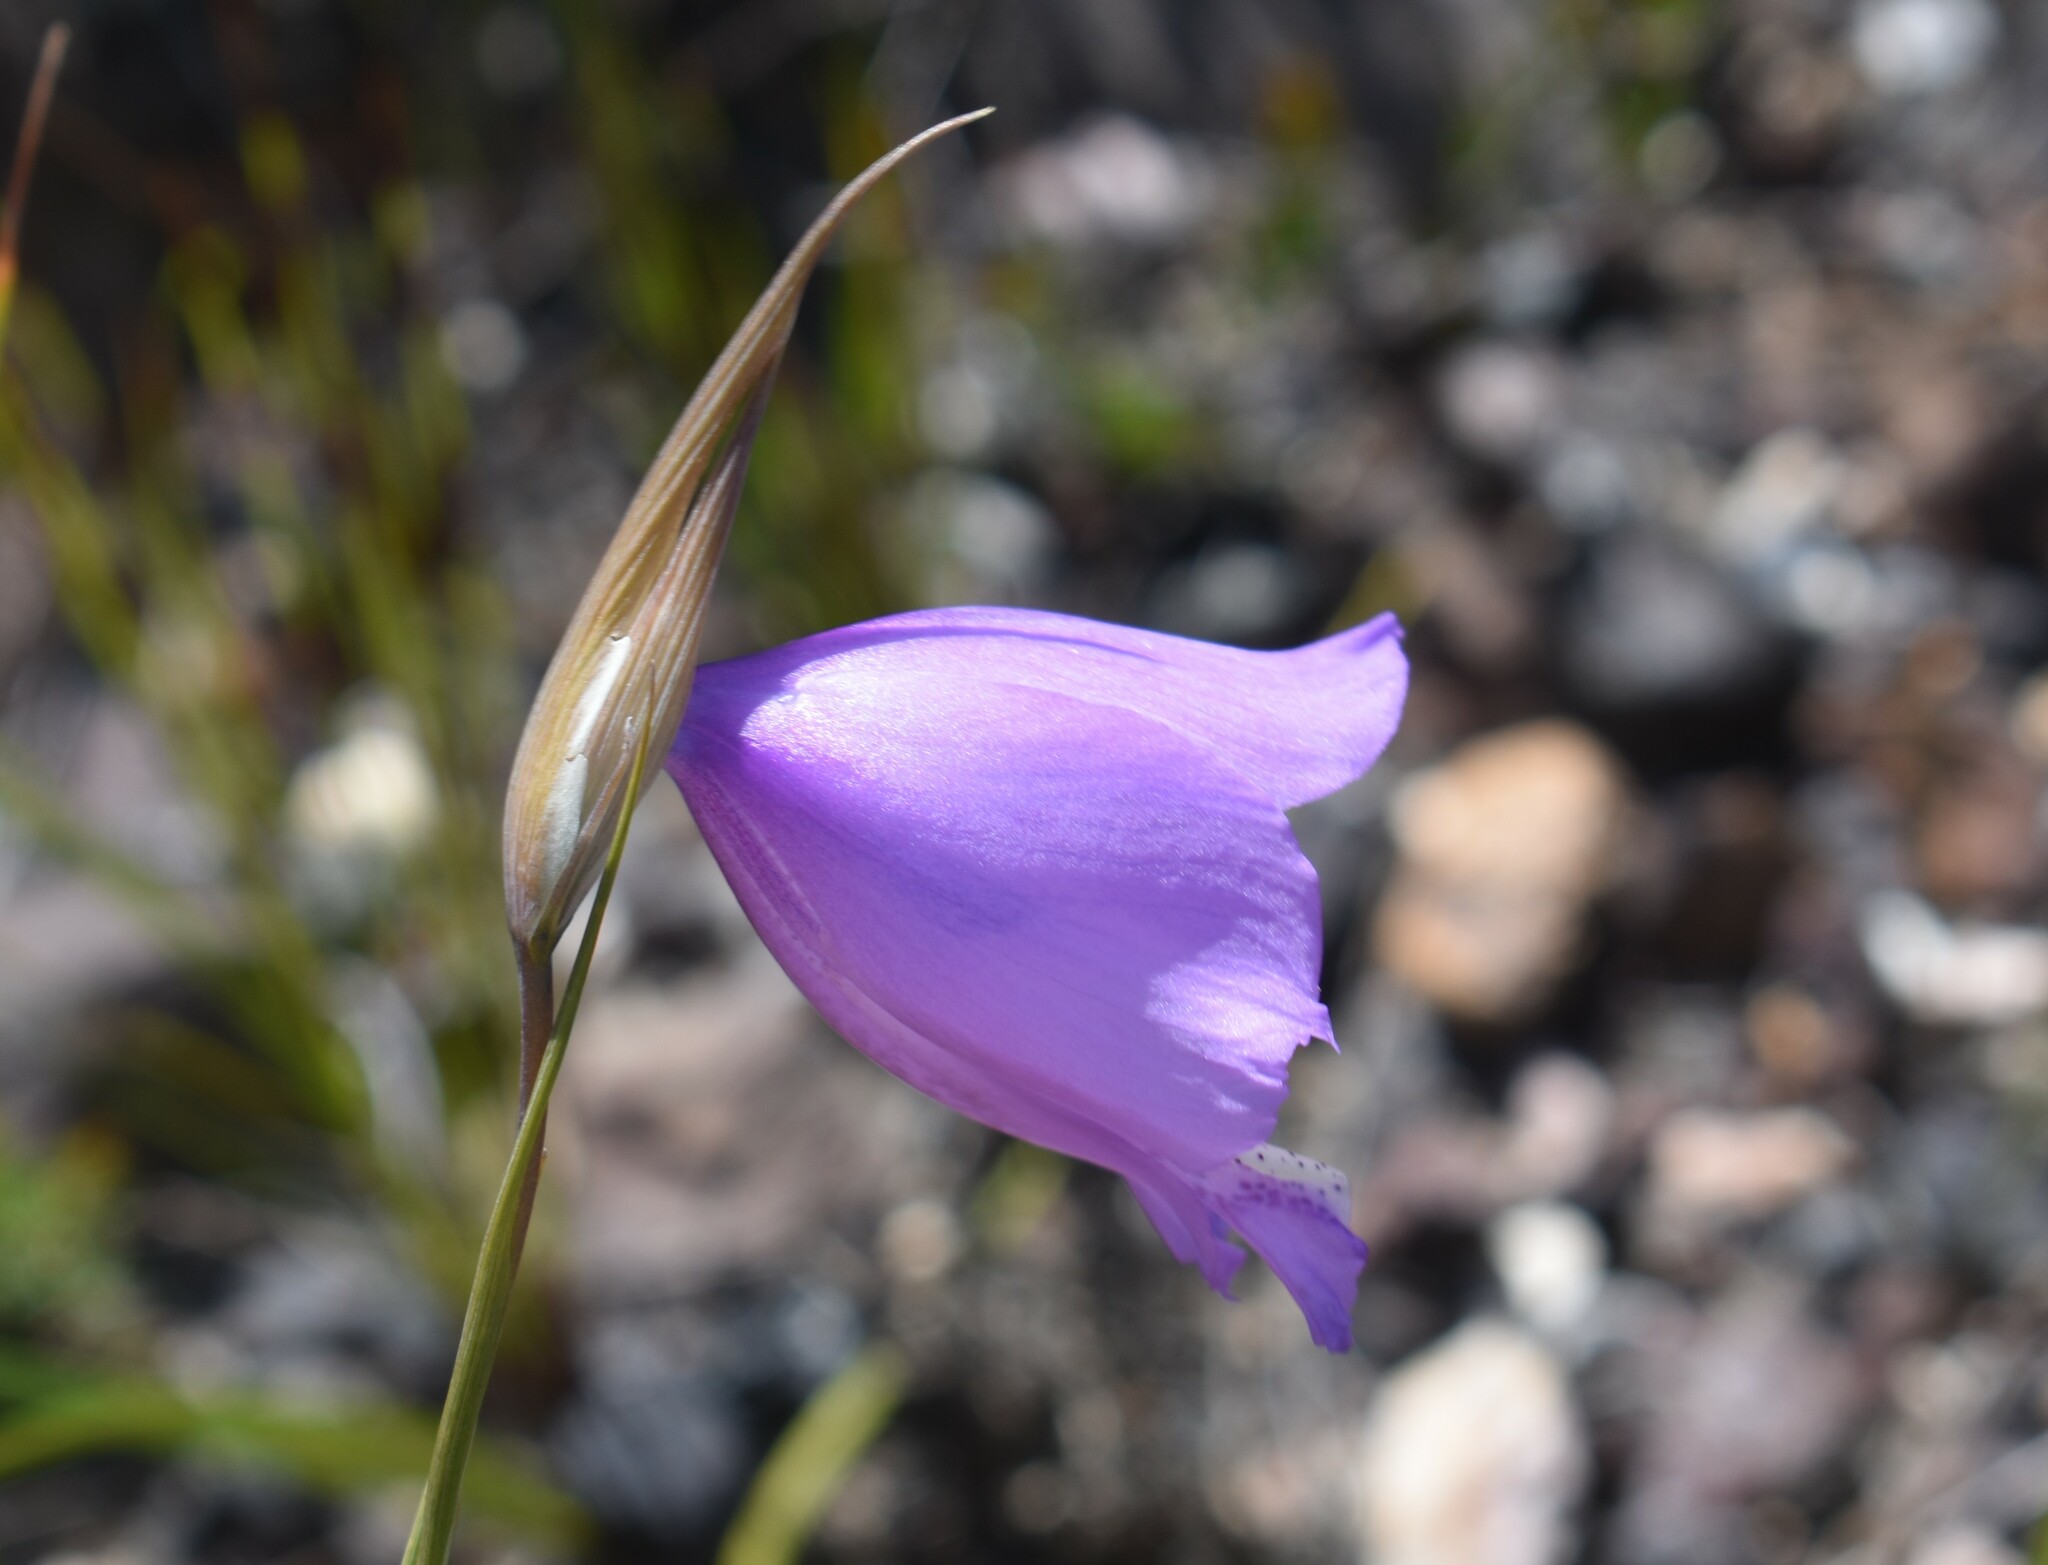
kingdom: Plantae
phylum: Tracheophyta
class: Liliopsida
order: Asparagales
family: Iridaceae
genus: Gladiolus
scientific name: Gladiolus bullatus
